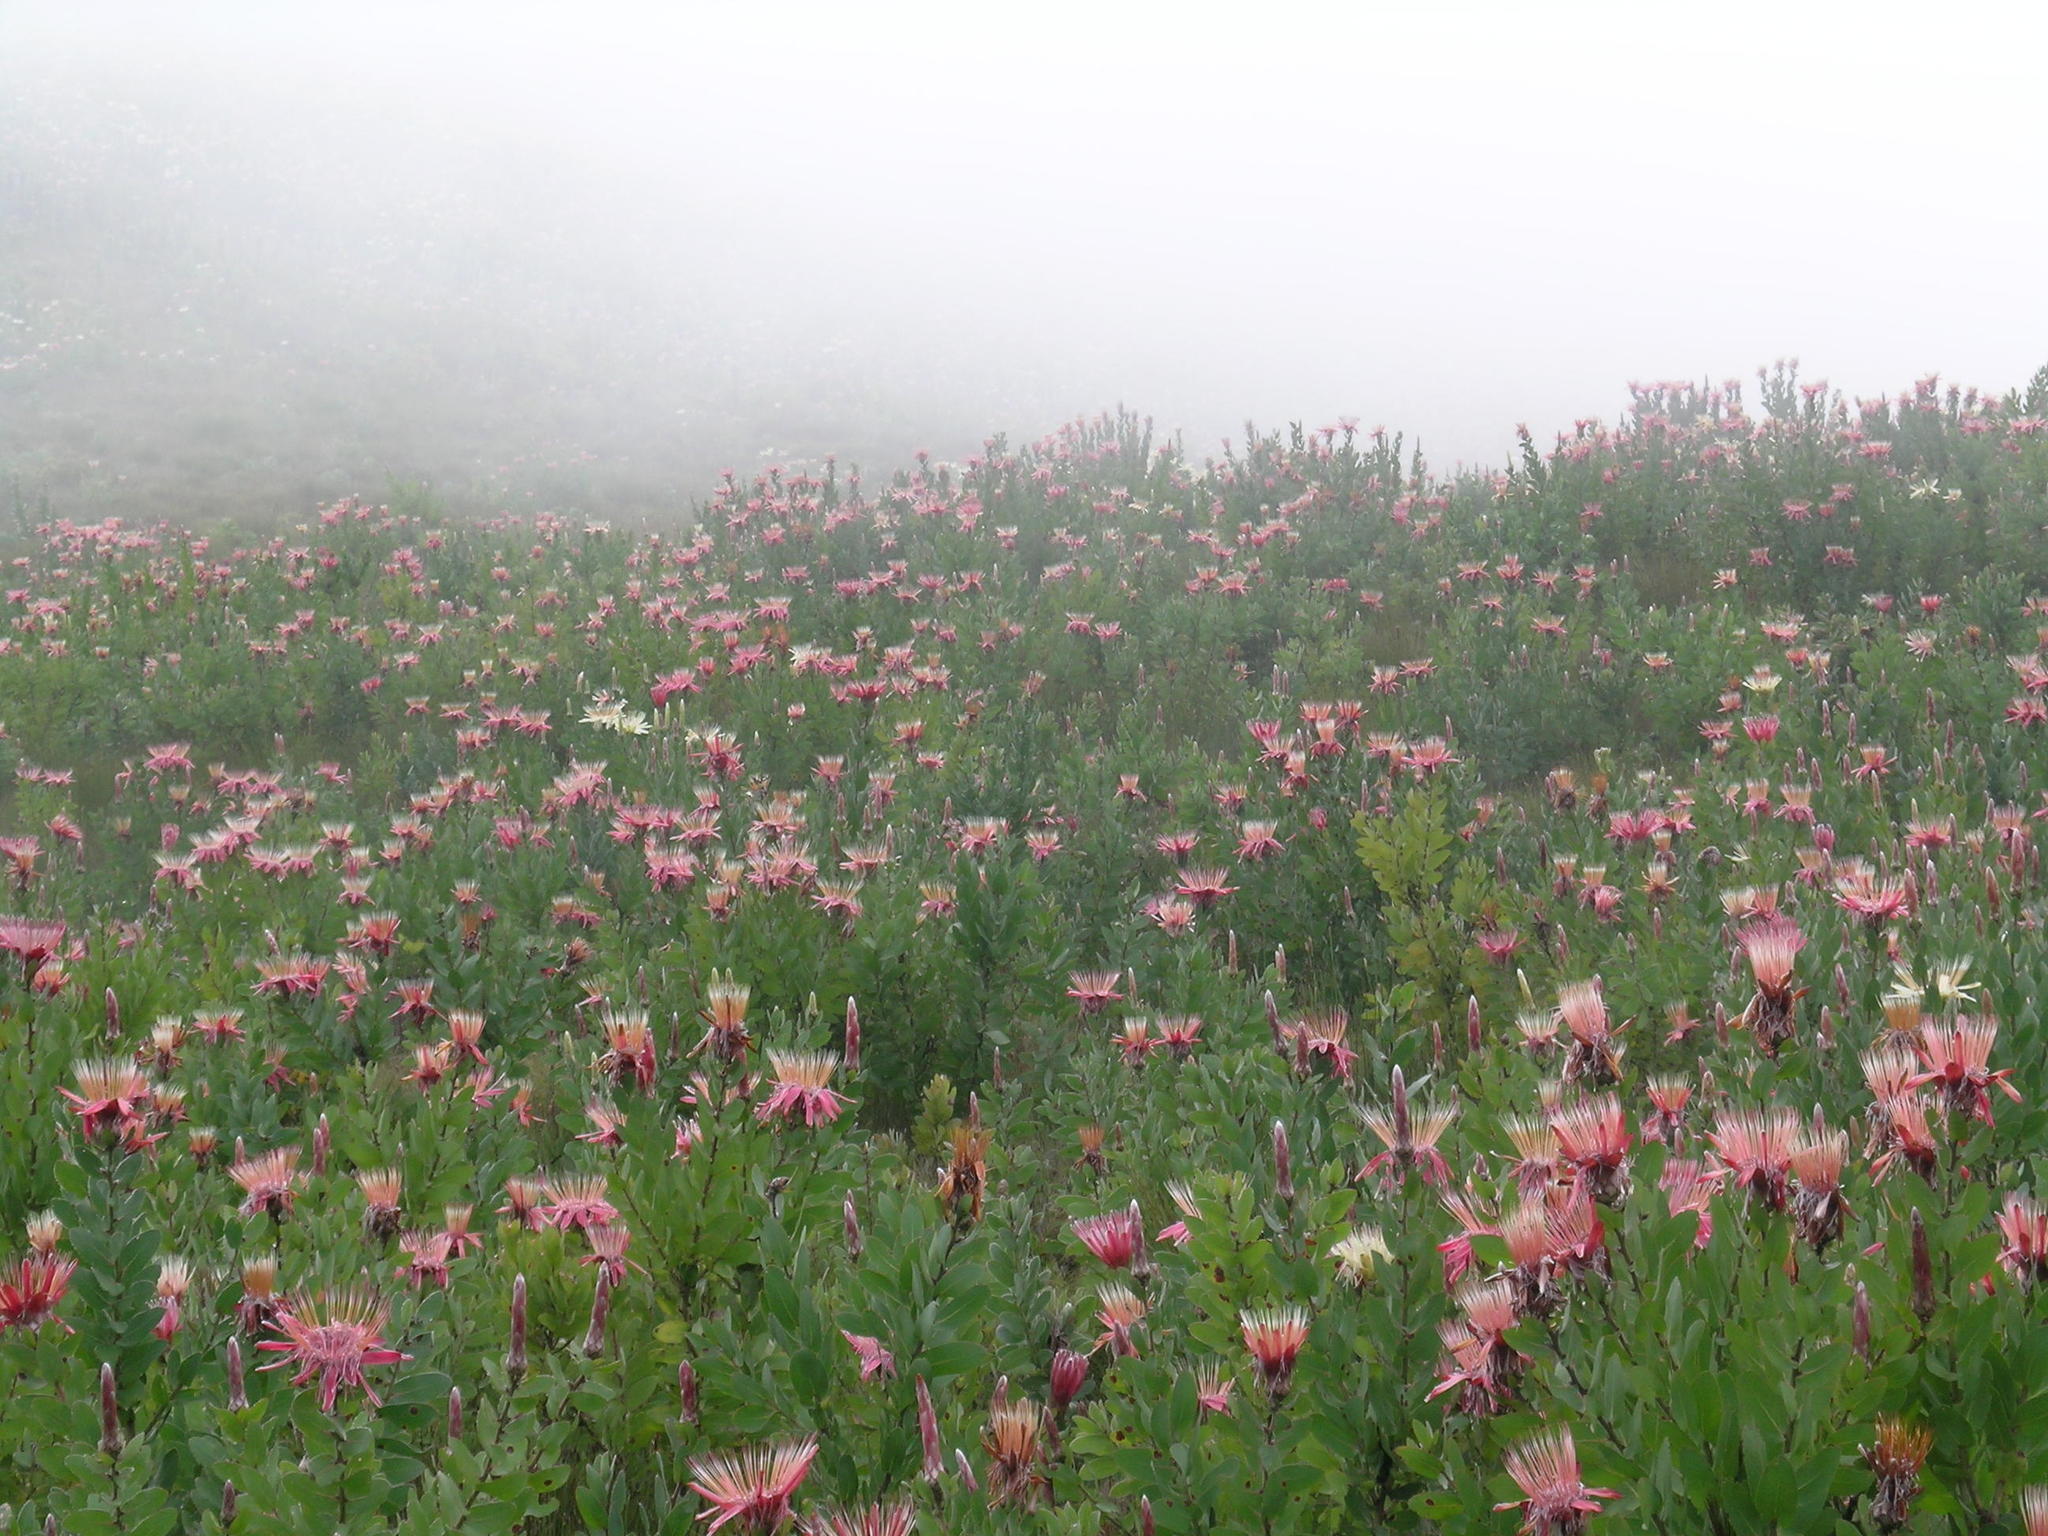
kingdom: Plantae
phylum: Tracheophyta
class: Magnoliopsida
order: Proteales
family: Proteaceae
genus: Protea
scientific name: Protea aurea
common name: Shuttlecock sugarbush
